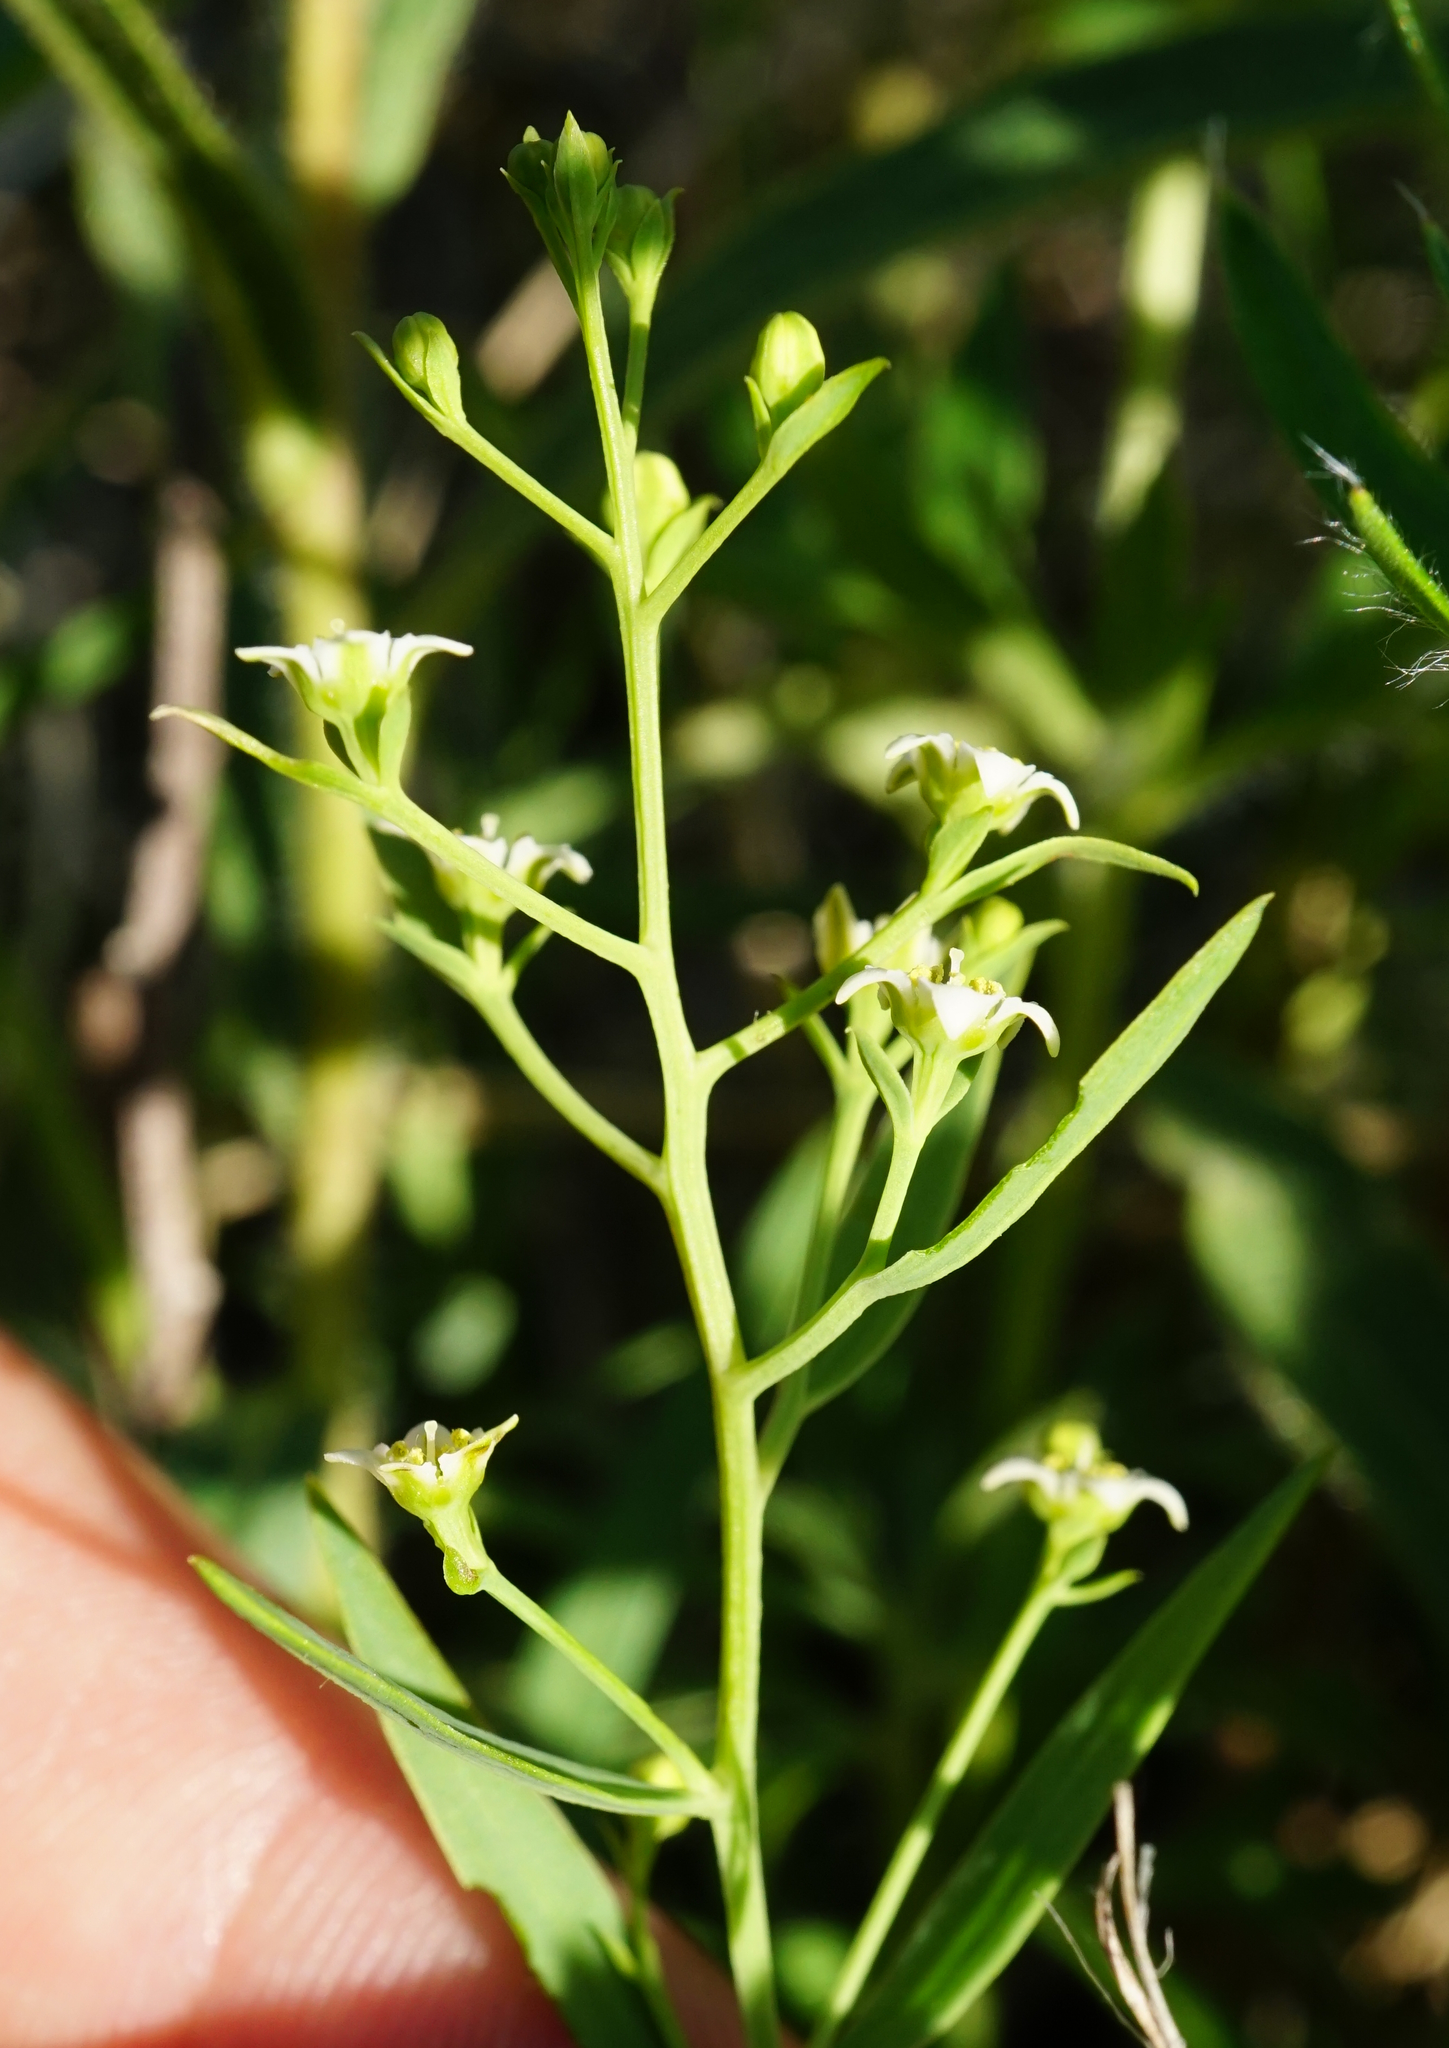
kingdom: Plantae
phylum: Tracheophyta
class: Magnoliopsida
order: Santalales
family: Thesiaceae
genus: Thesium
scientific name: Thesium bavarum
